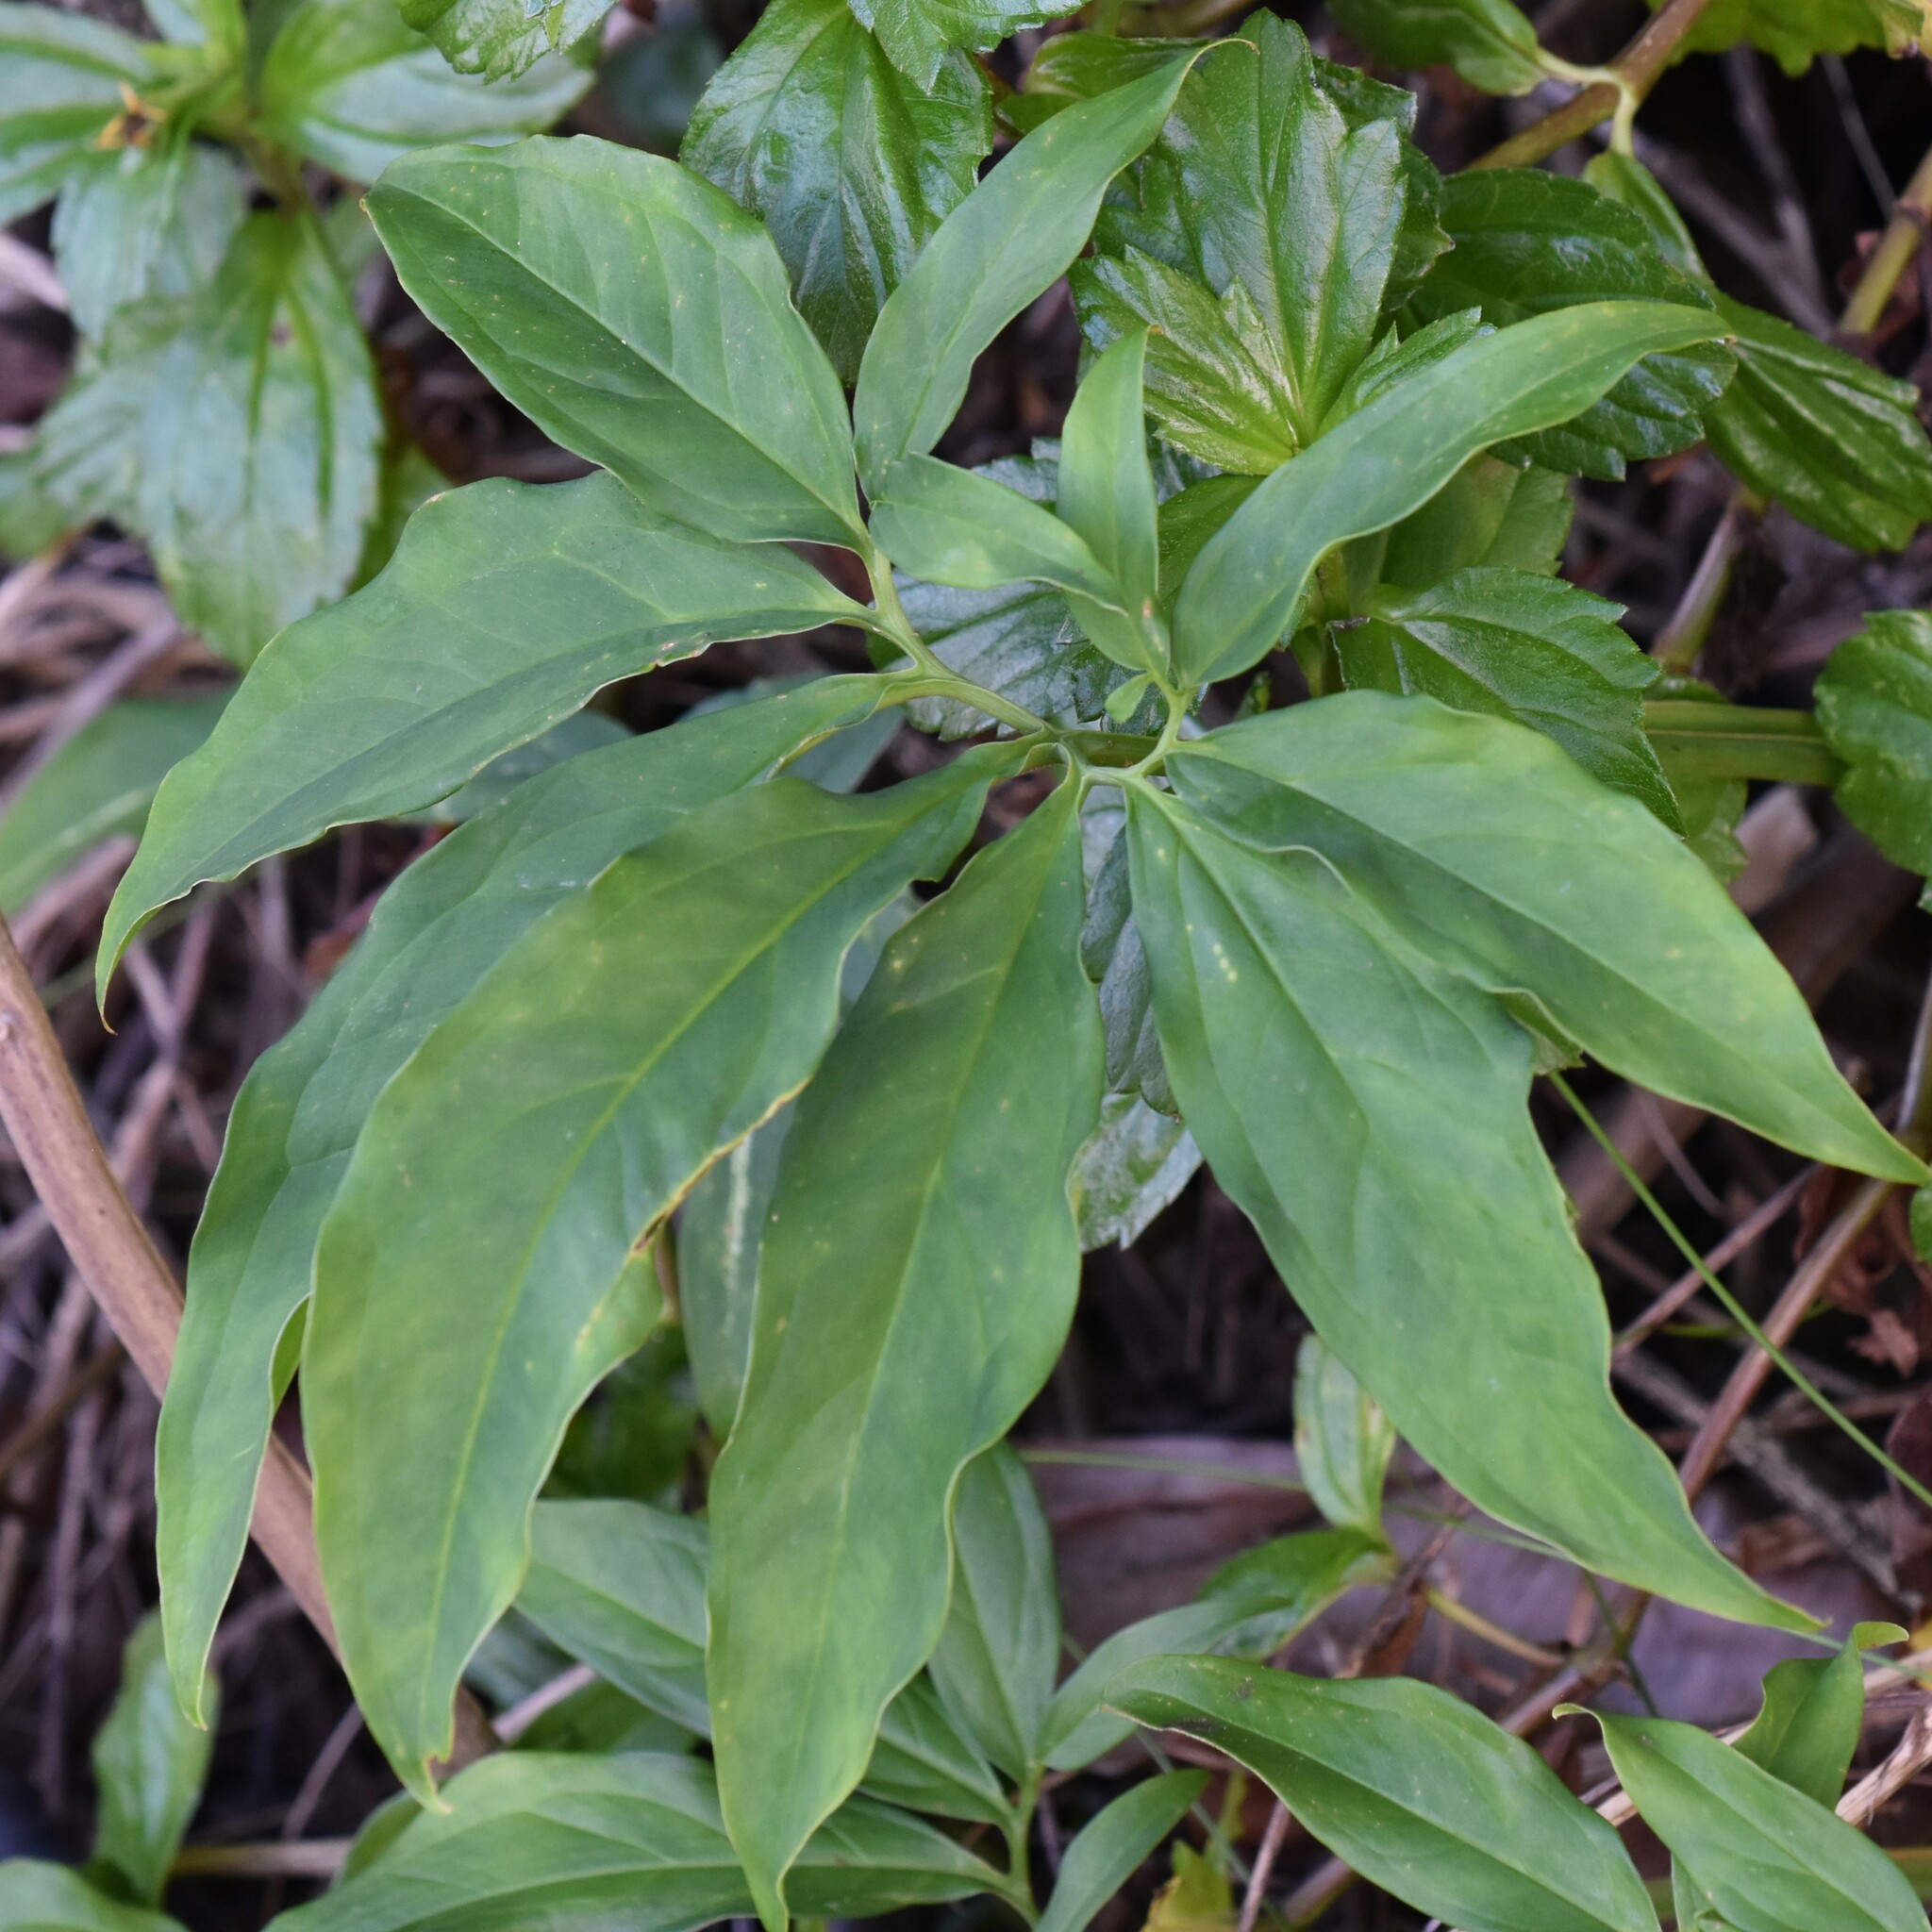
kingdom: Plantae
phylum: Tracheophyta
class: Liliopsida
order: Alismatales
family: Araceae
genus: Syngonium
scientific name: Syngonium podophyllum
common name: American evergreen
